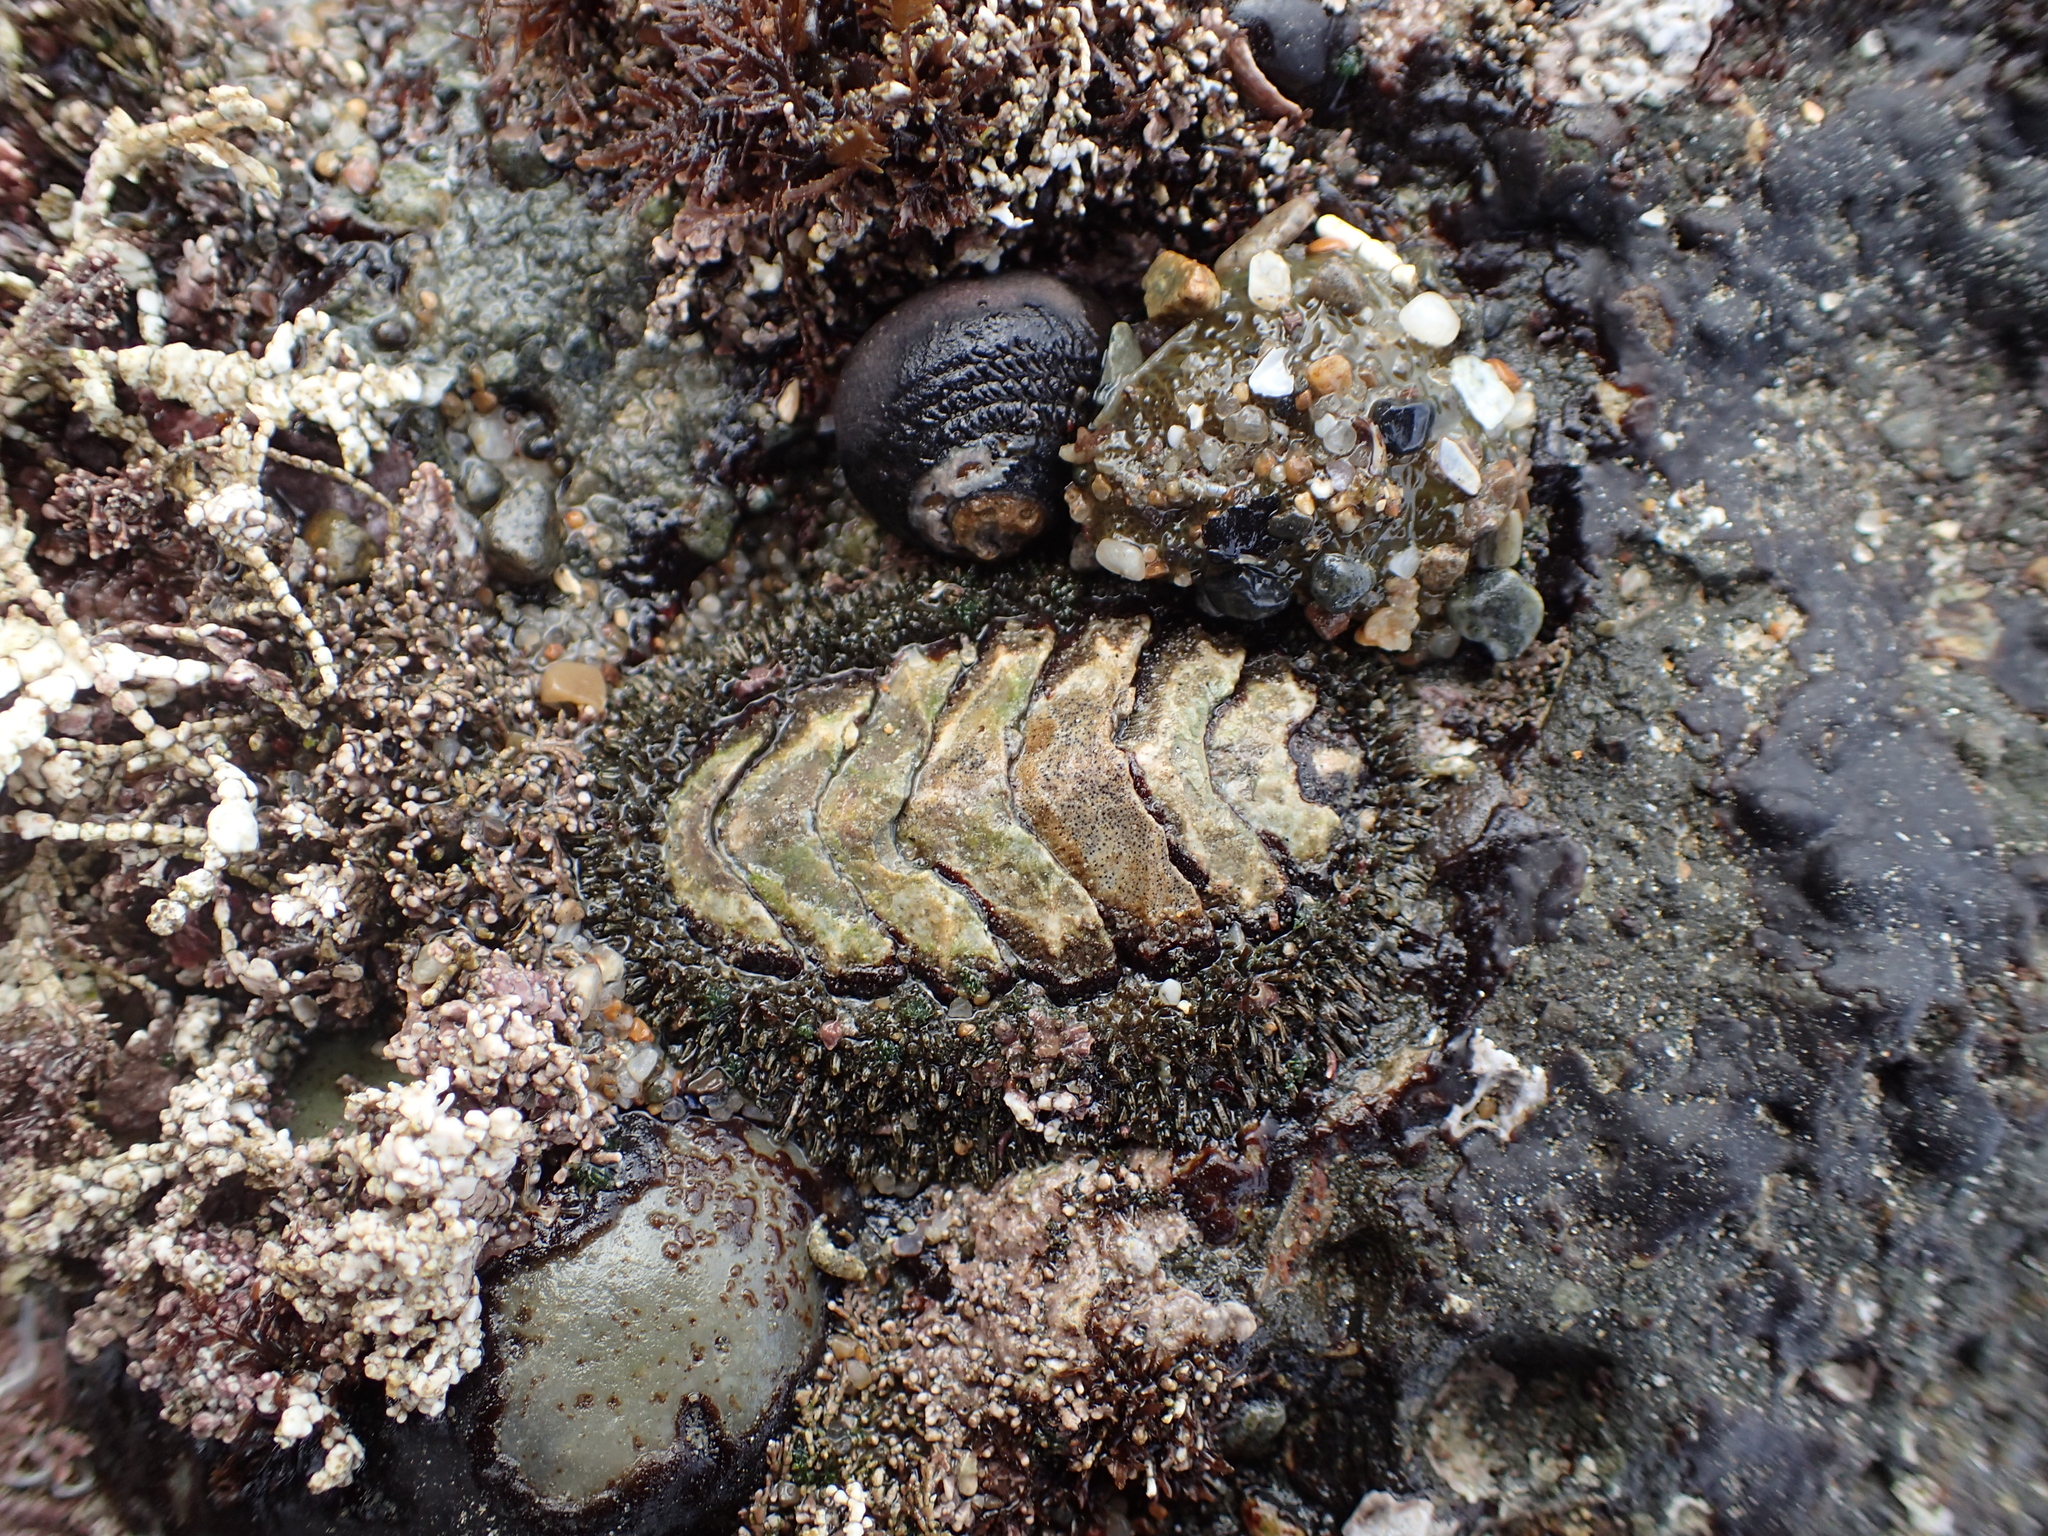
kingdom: Animalia
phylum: Mollusca
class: Polyplacophora
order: Chitonida
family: Mopaliidae
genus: Mopalia
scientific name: Mopalia muscosa
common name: Mossy chiton
